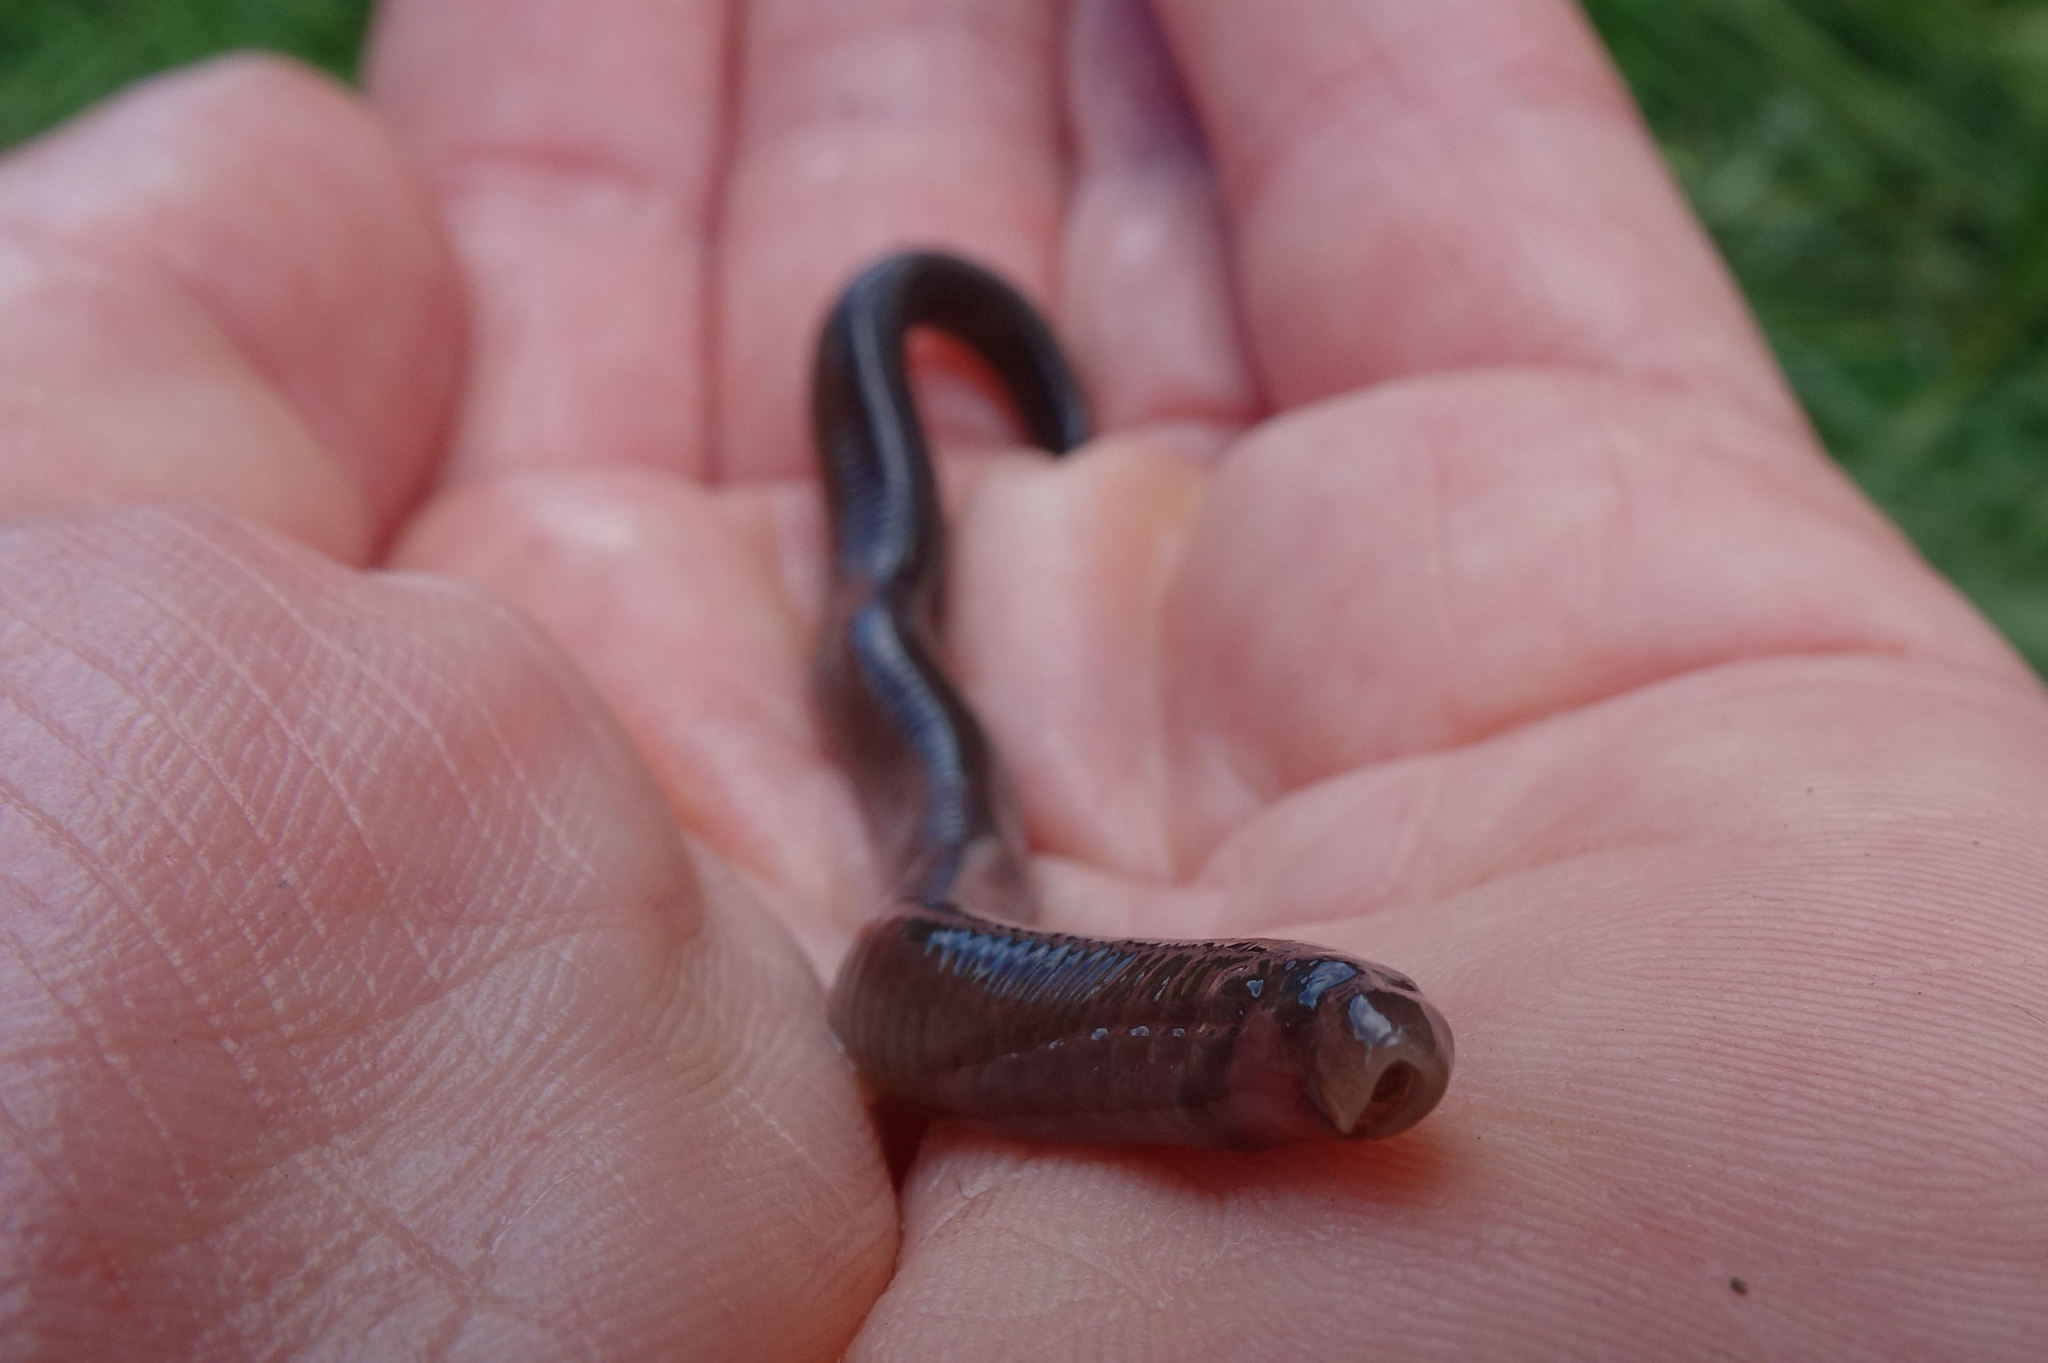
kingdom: Animalia
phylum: Chordata
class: Petromyzonti
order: Petromyzontiformes
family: Geotriidae
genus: Geotria
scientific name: Geotria australis
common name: Pouched lamprey
